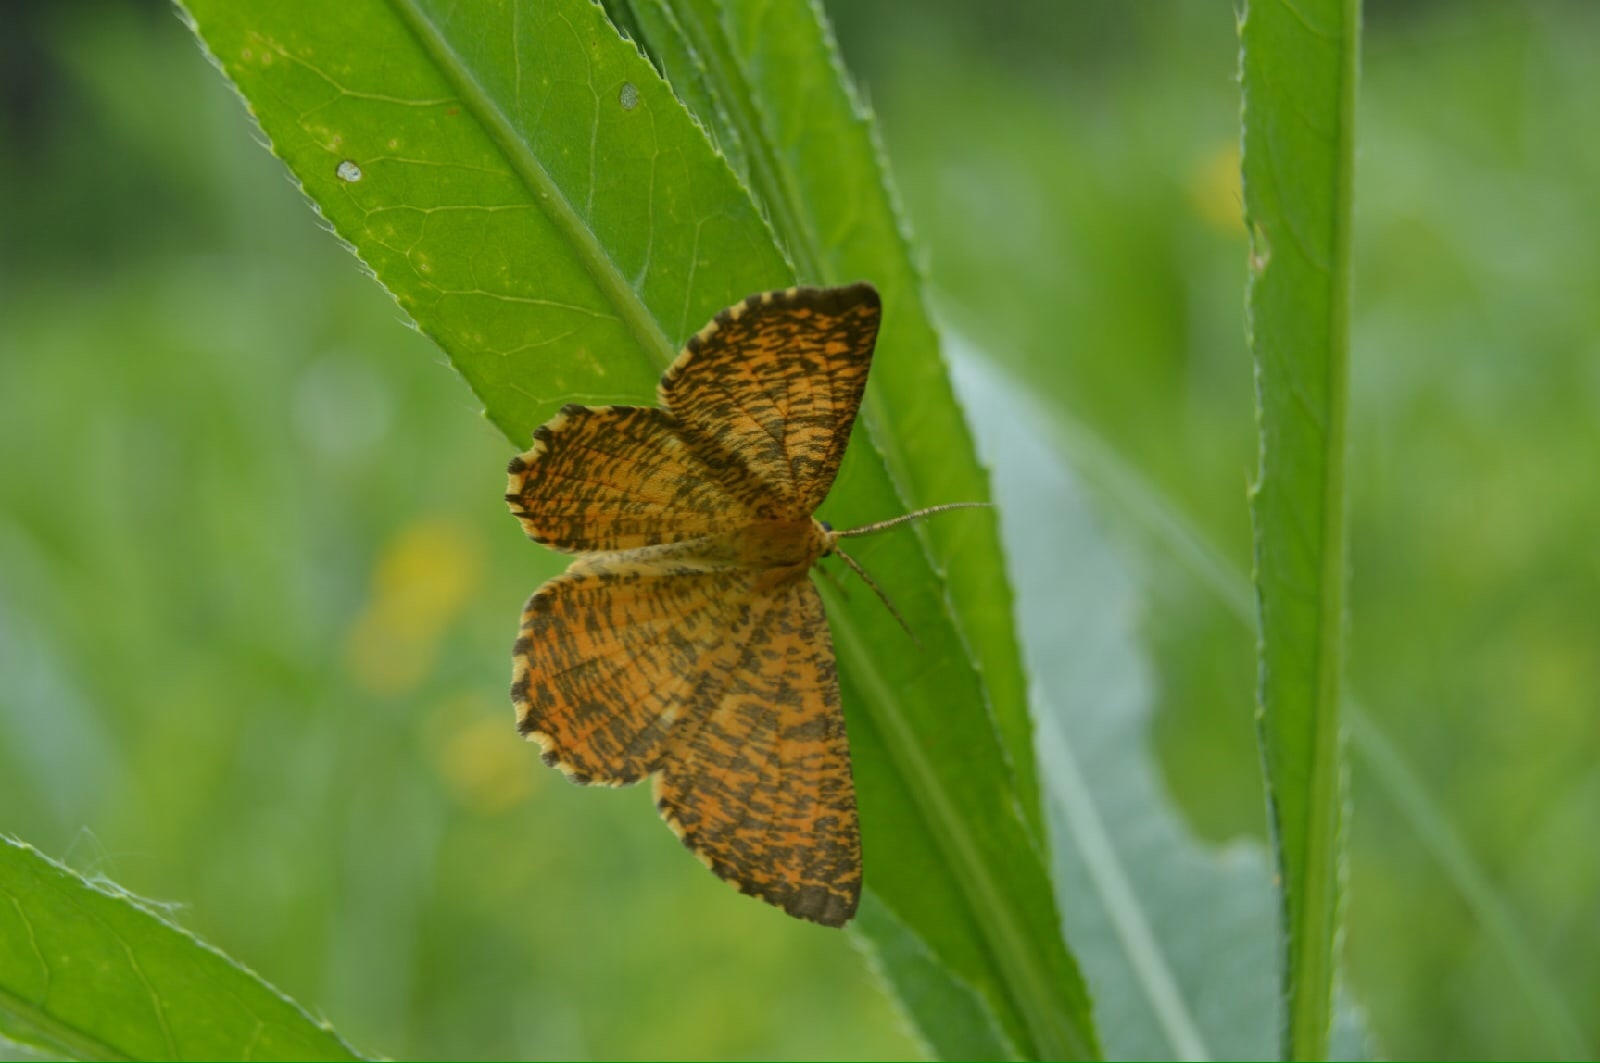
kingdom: Animalia
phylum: Arthropoda
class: Insecta
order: Lepidoptera
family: Geometridae
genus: Angerona
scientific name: Angerona prunaria
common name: Orange moth
